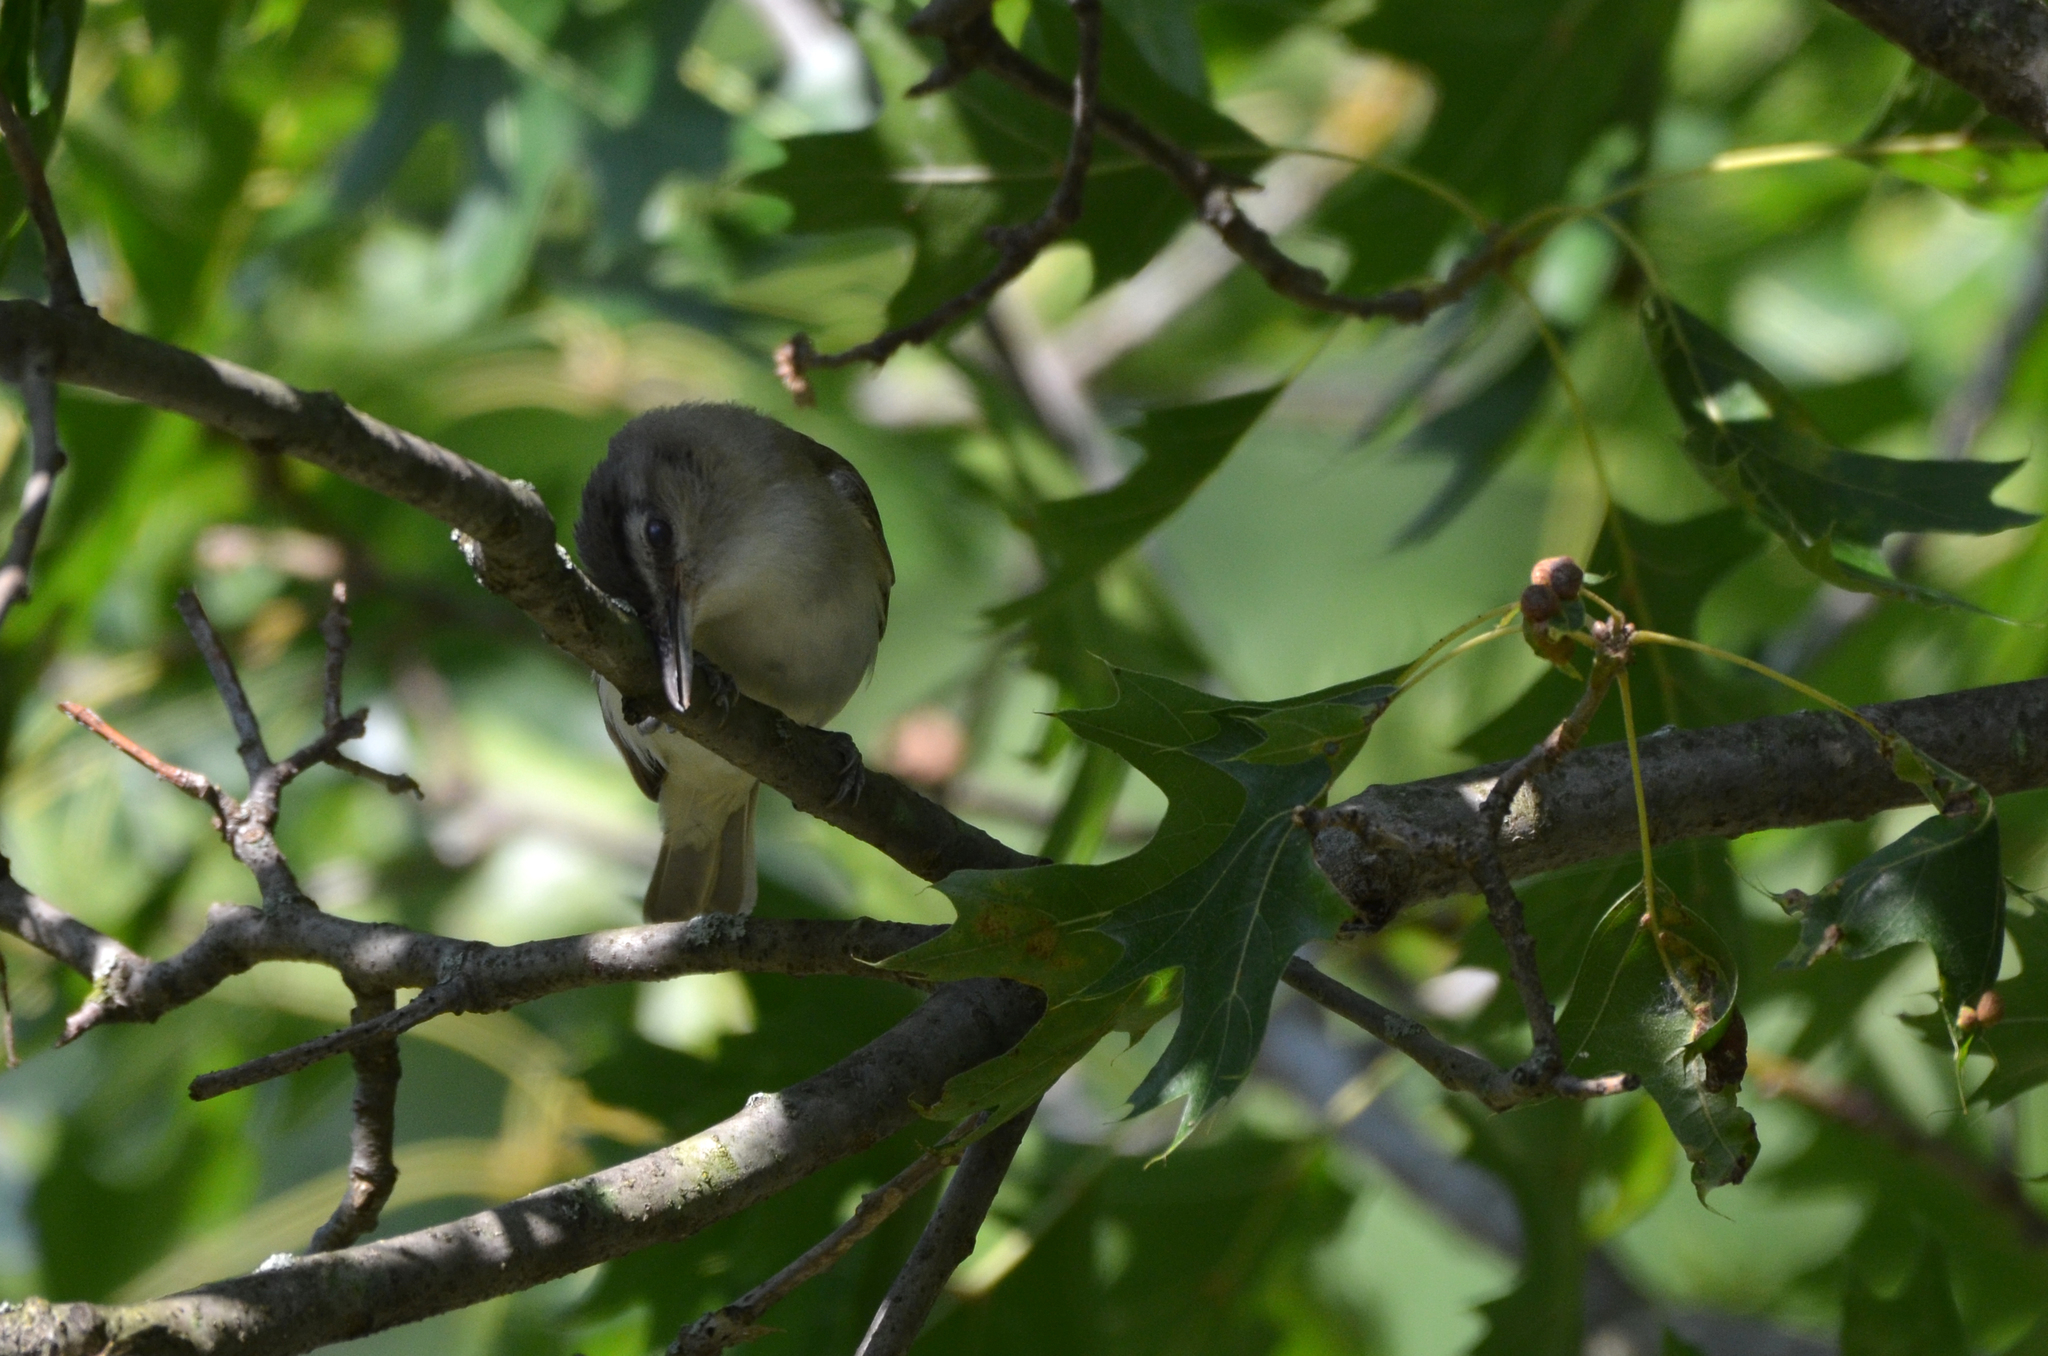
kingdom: Animalia
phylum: Chordata
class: Aves
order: Passeriformes
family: Vireonidae
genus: Vireo
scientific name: Vireo olivaceus
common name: Red-eyed vireo
